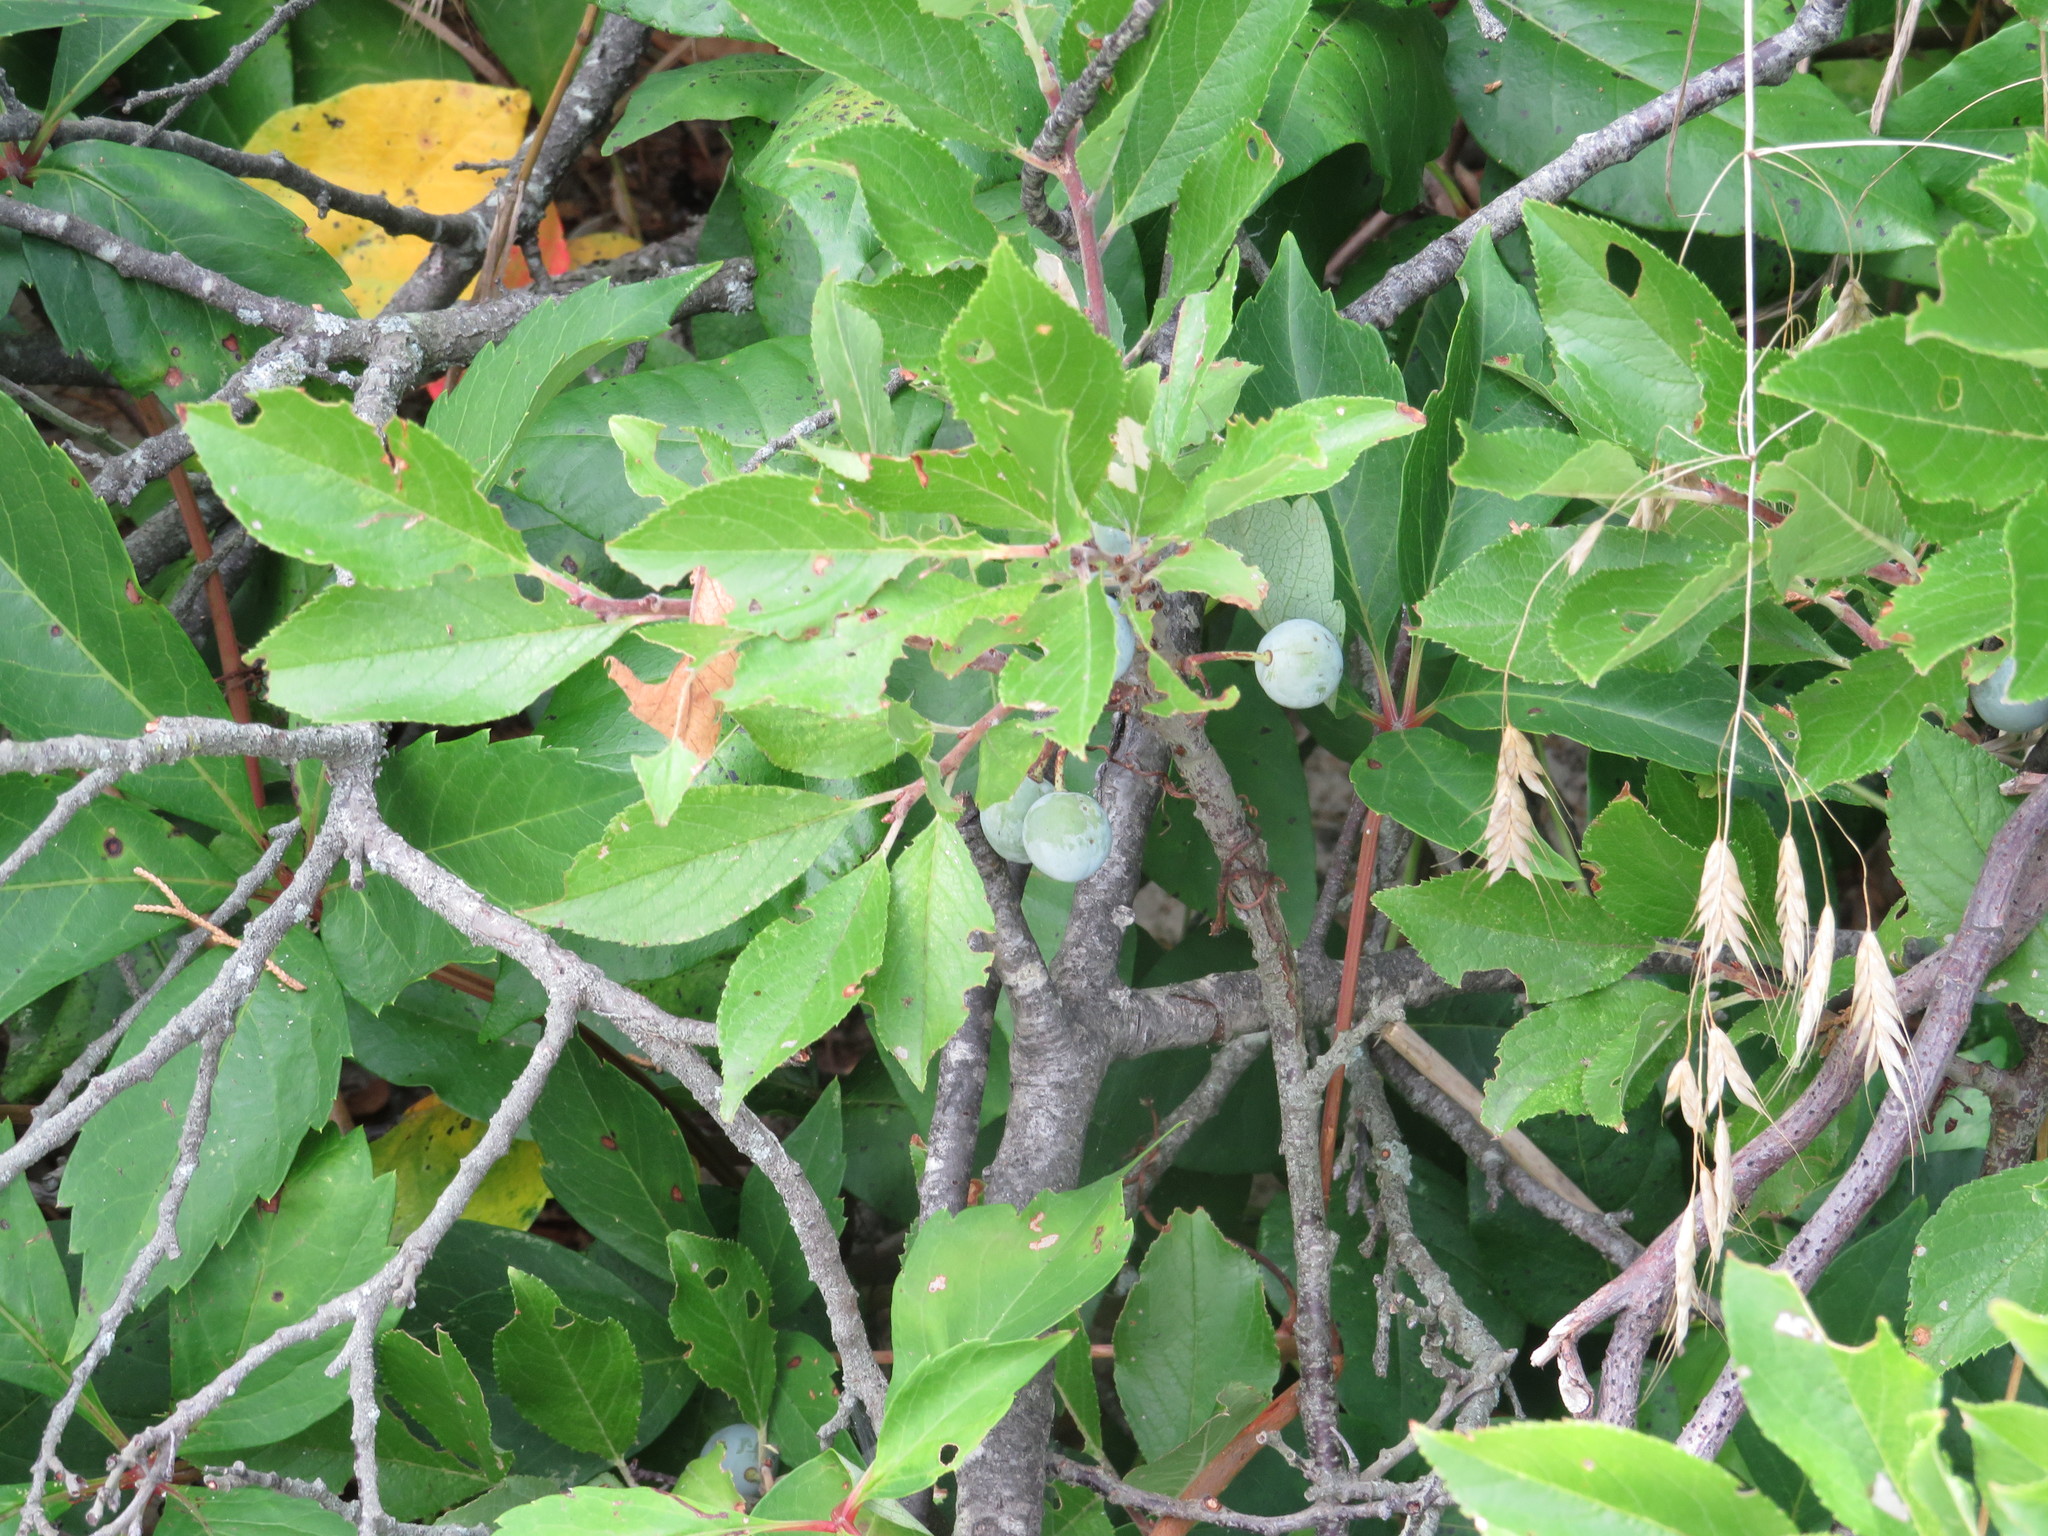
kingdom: Plantae
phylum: Tracheophyta
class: Magnoliopsida
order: Rosales
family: Rosaceae
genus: Prunus
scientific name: Prunus maritima
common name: Beach plum
